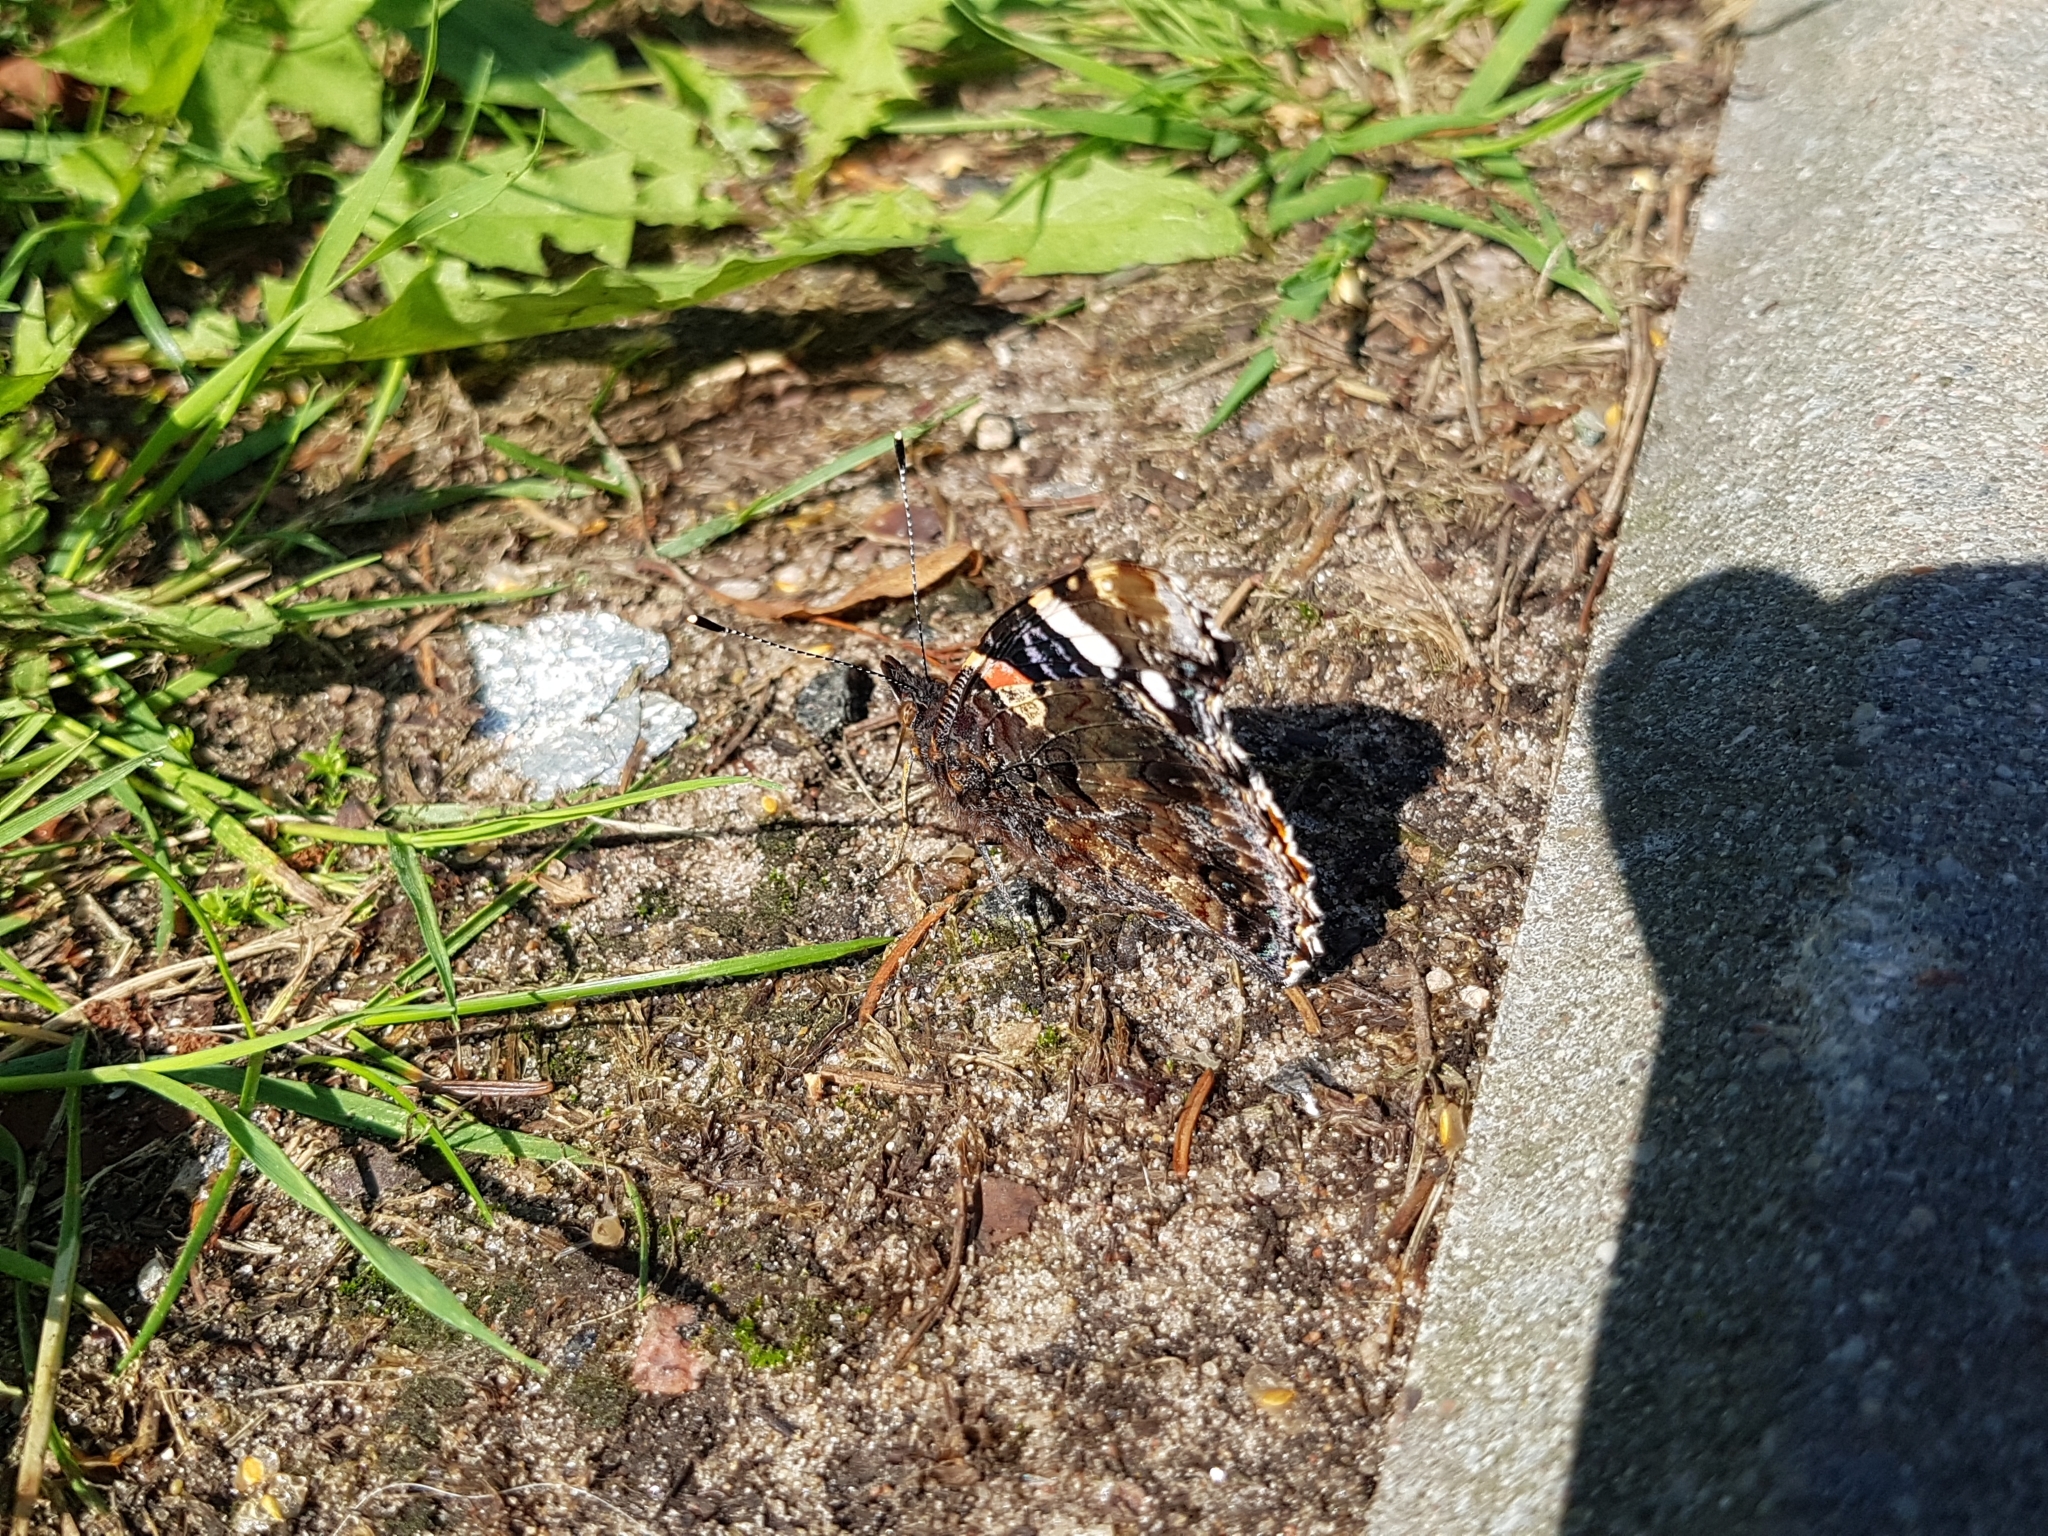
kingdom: Animalia
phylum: Arthropoda
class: Insecta
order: Lepidoptera
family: Nymphalidae
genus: Vanessa
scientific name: Vanessa atalanta
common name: Red admiral
